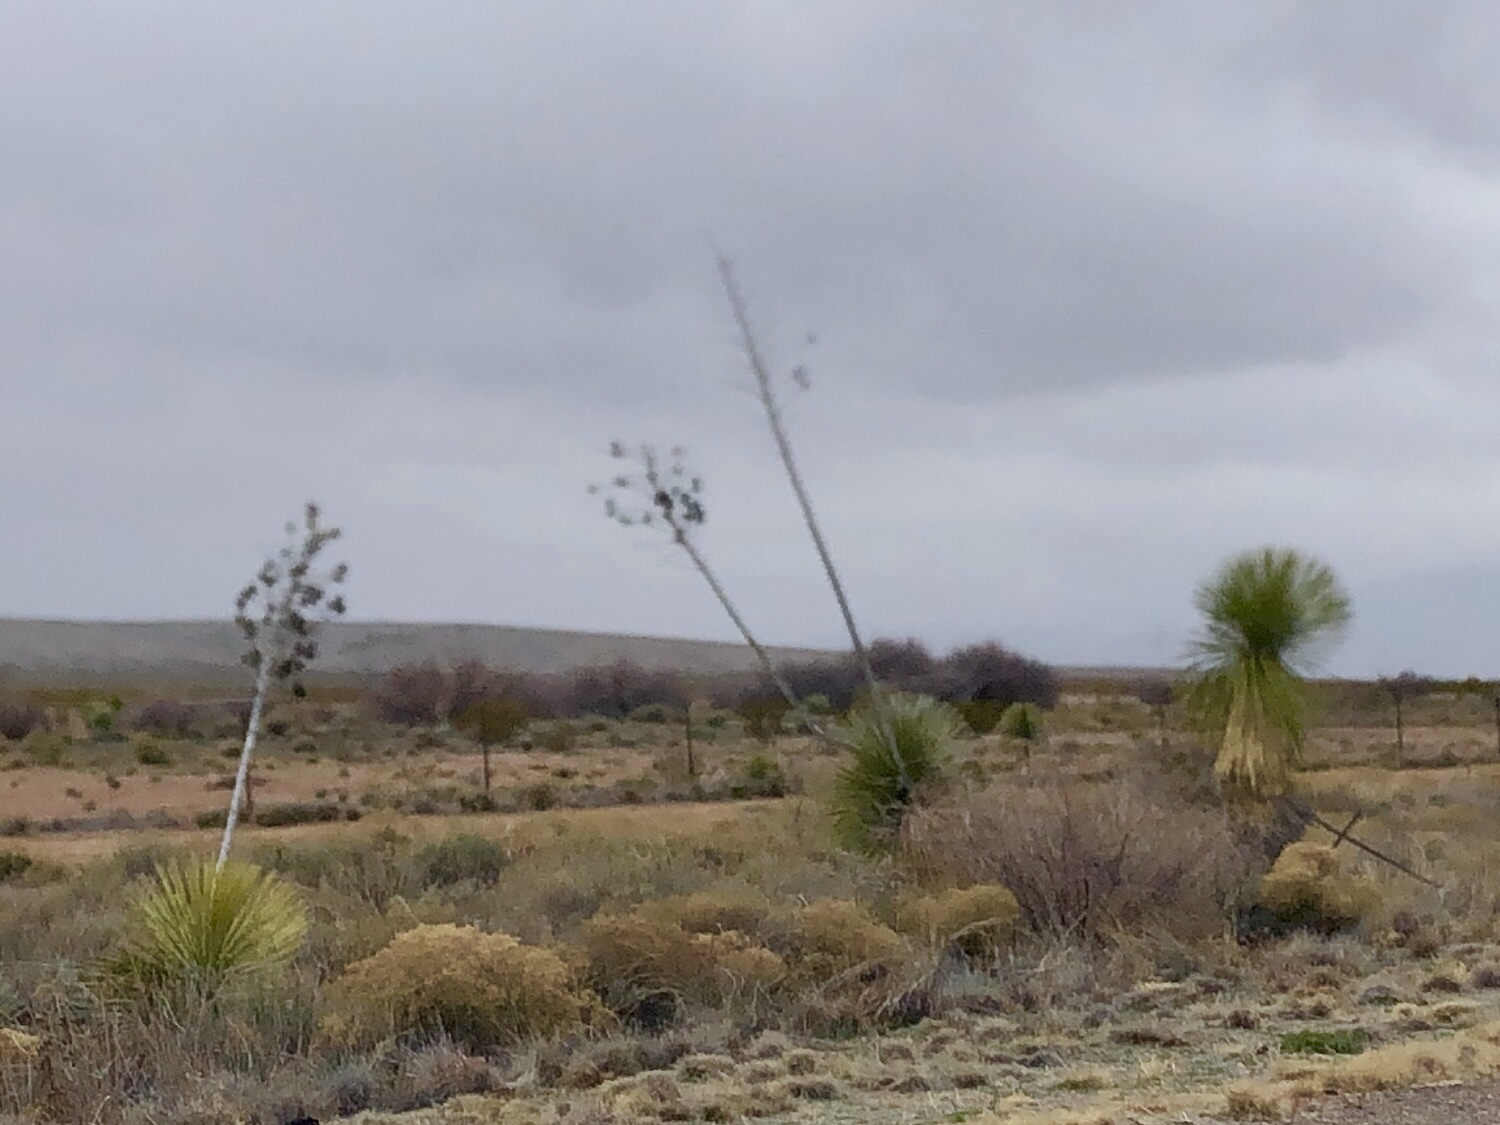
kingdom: Plantae
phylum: Tracheophyta
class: Liliopsida
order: Asparagales
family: Asparagaceae
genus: Yucca
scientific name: Yucca elata
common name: Palmella
